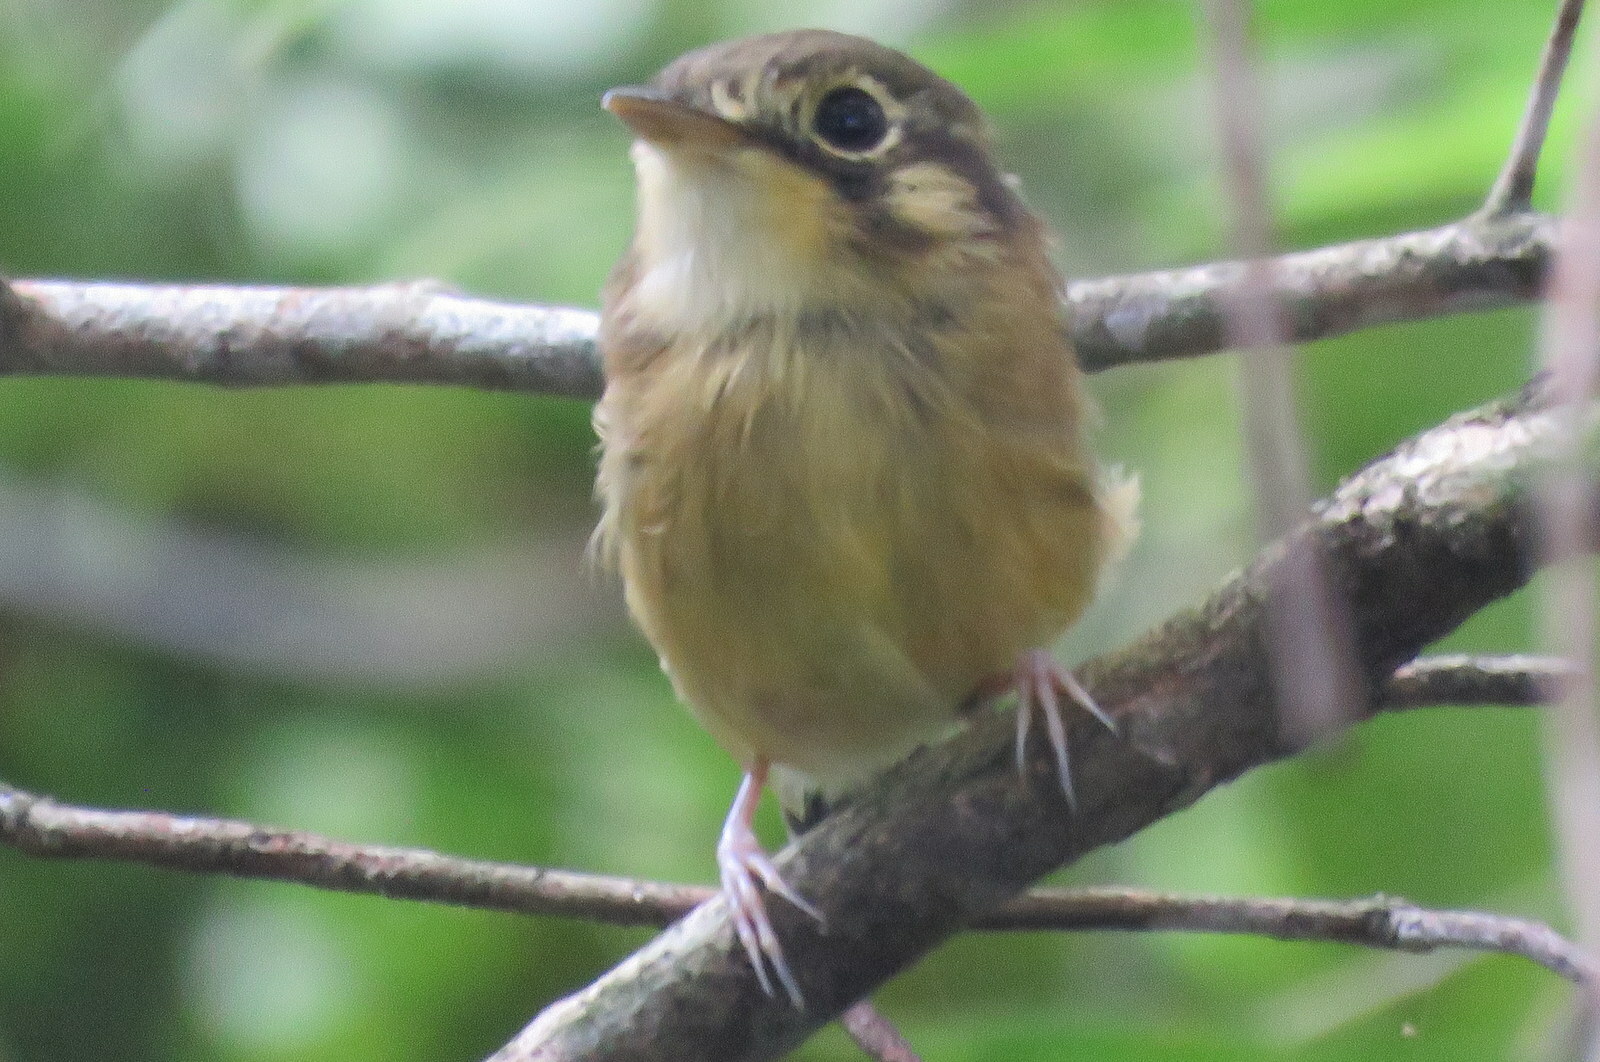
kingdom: Animalia
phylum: Chordata
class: Aves
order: Passeriformes
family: Tyrannidae
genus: Platyrinchus
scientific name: Platyrinchus mystaceus
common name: White-throated spadebill
